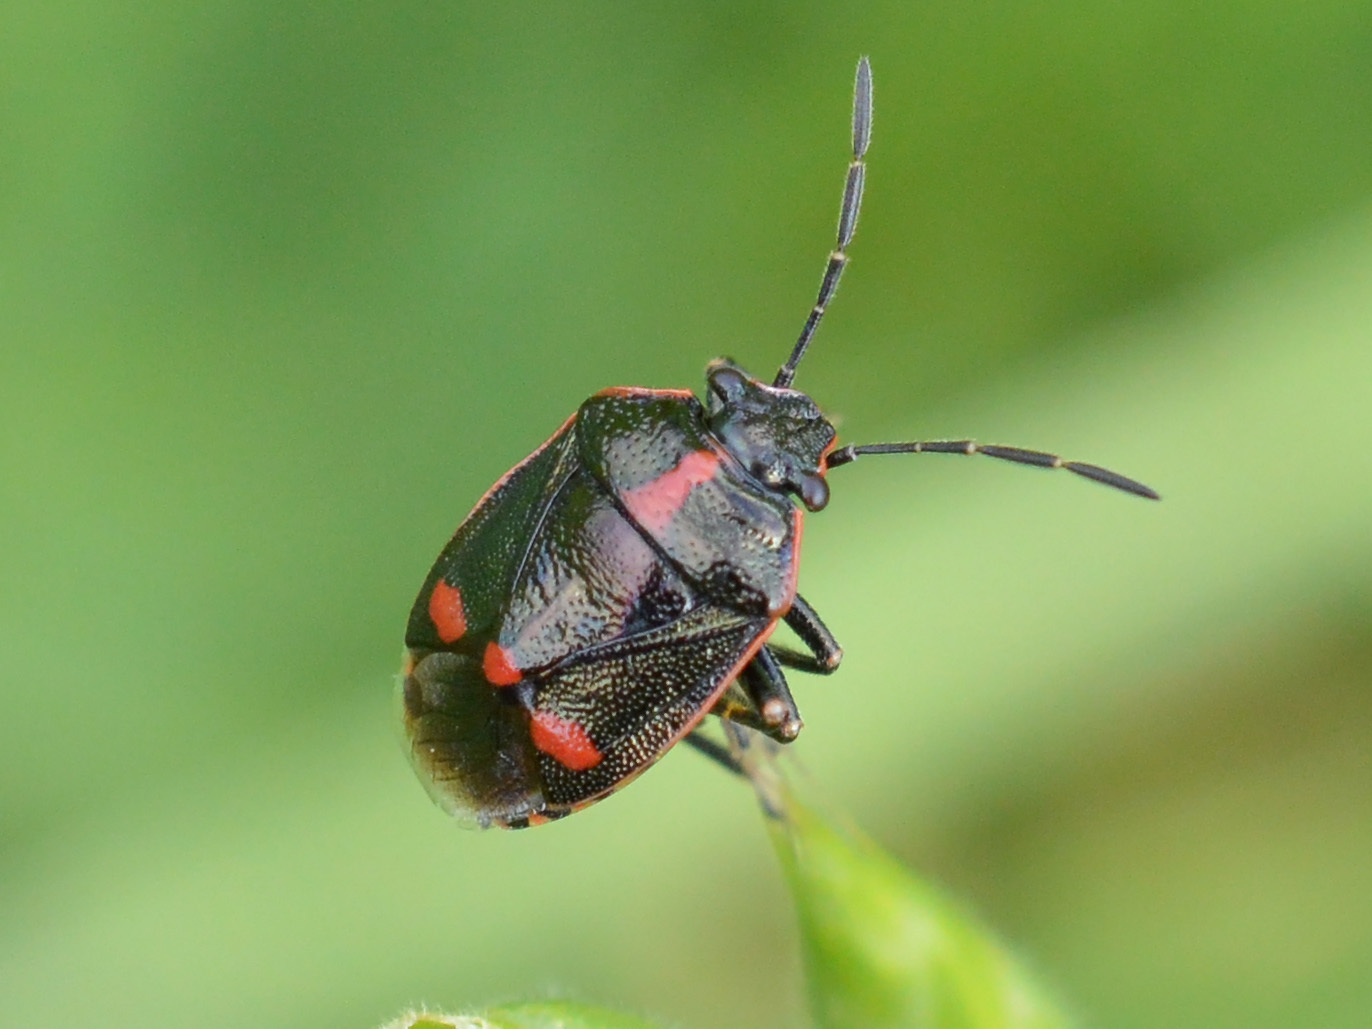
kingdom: Animalia
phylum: Arthropoda
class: Insecta
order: Hemiptera
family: Pentatomidae
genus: Eurydema
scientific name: Eurydema oleracea
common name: Cabbage bug
